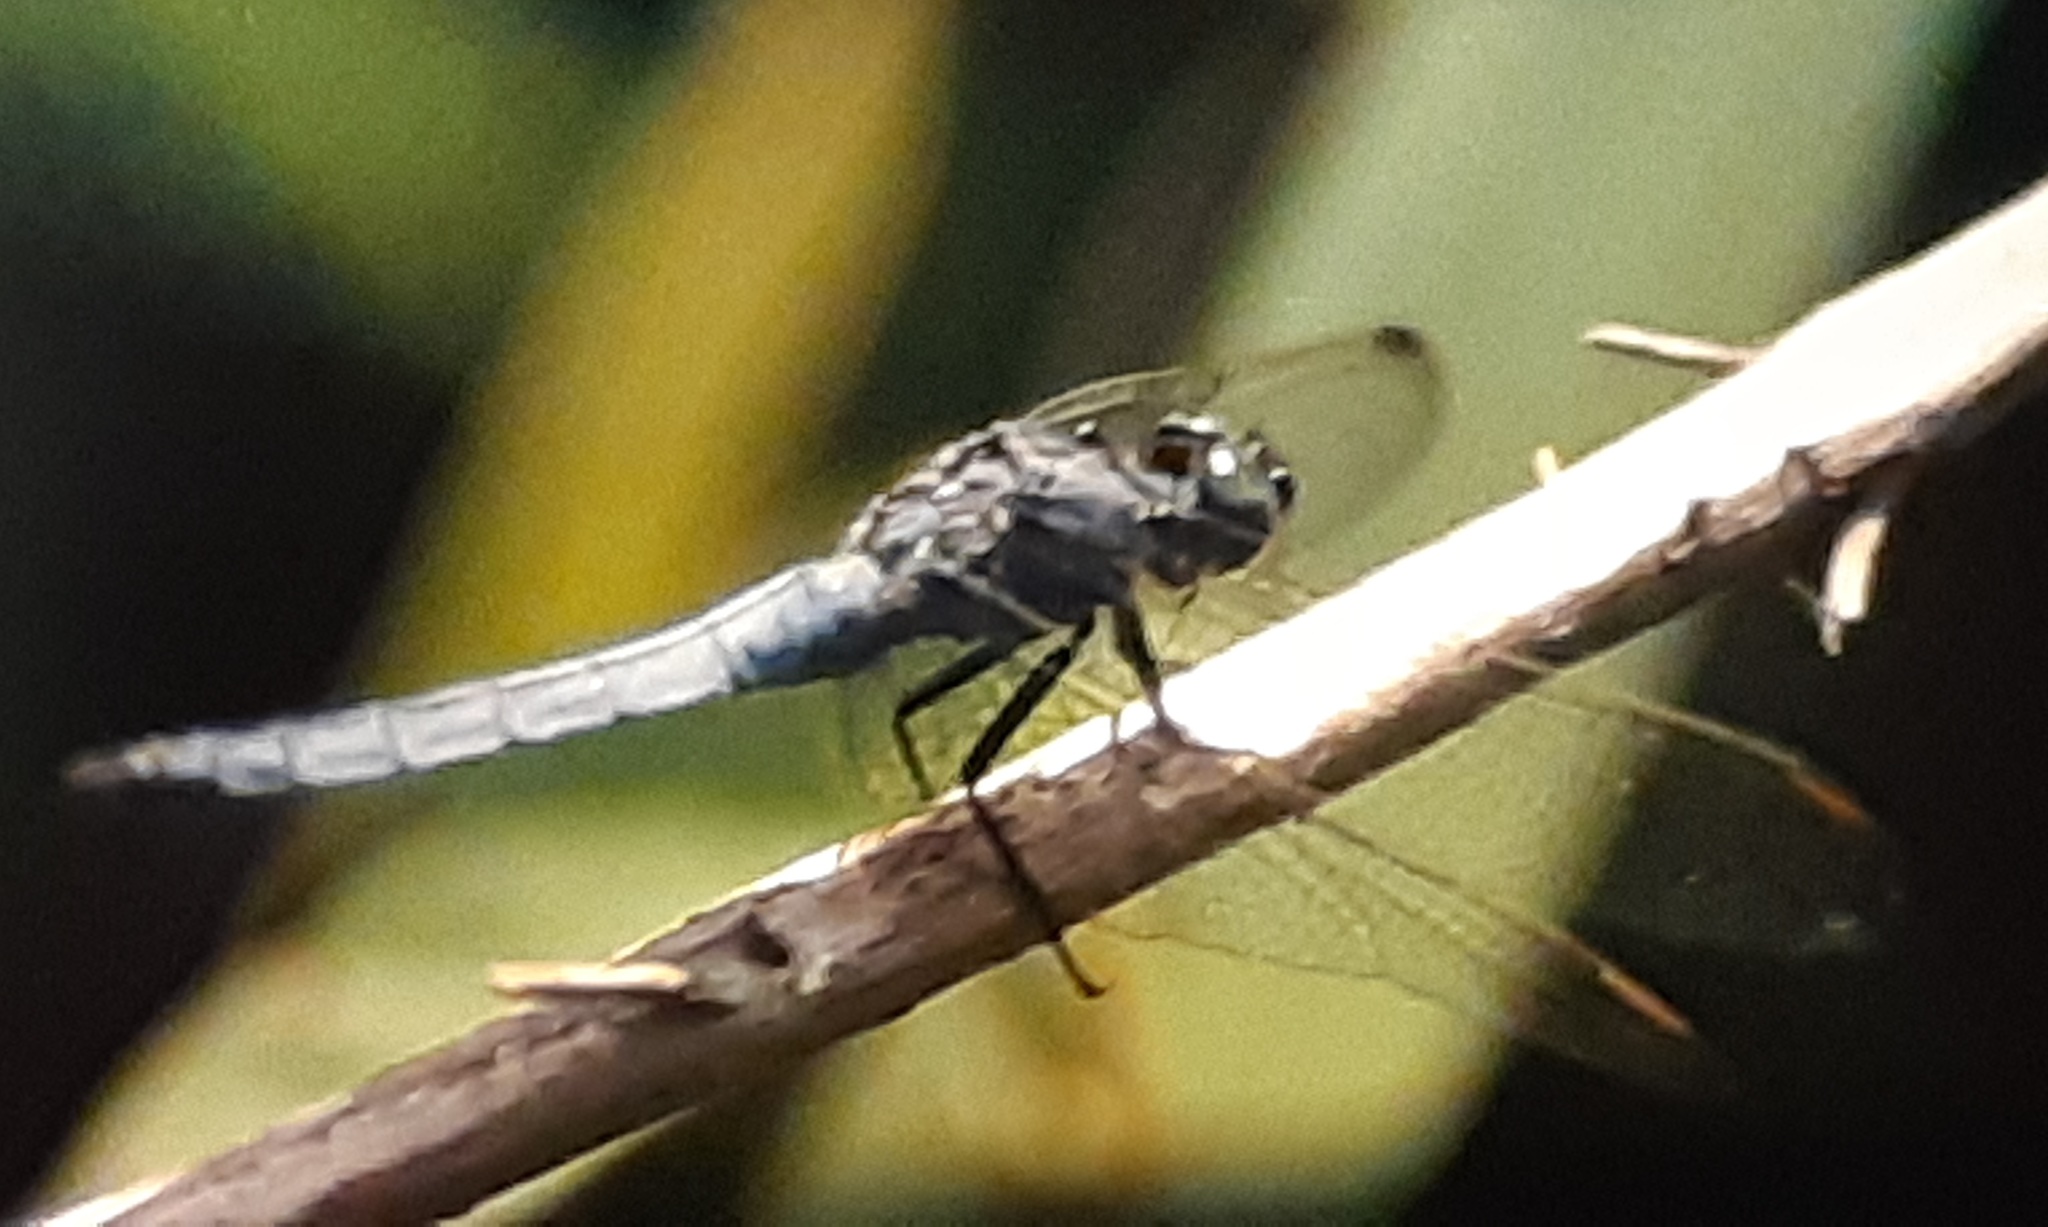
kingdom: Animalia
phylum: Arthropoda
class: Insecta
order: Odonata
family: Libellulidae
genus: Orthetrum
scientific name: Orthetrum coerulescens
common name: Keeled skimmer
